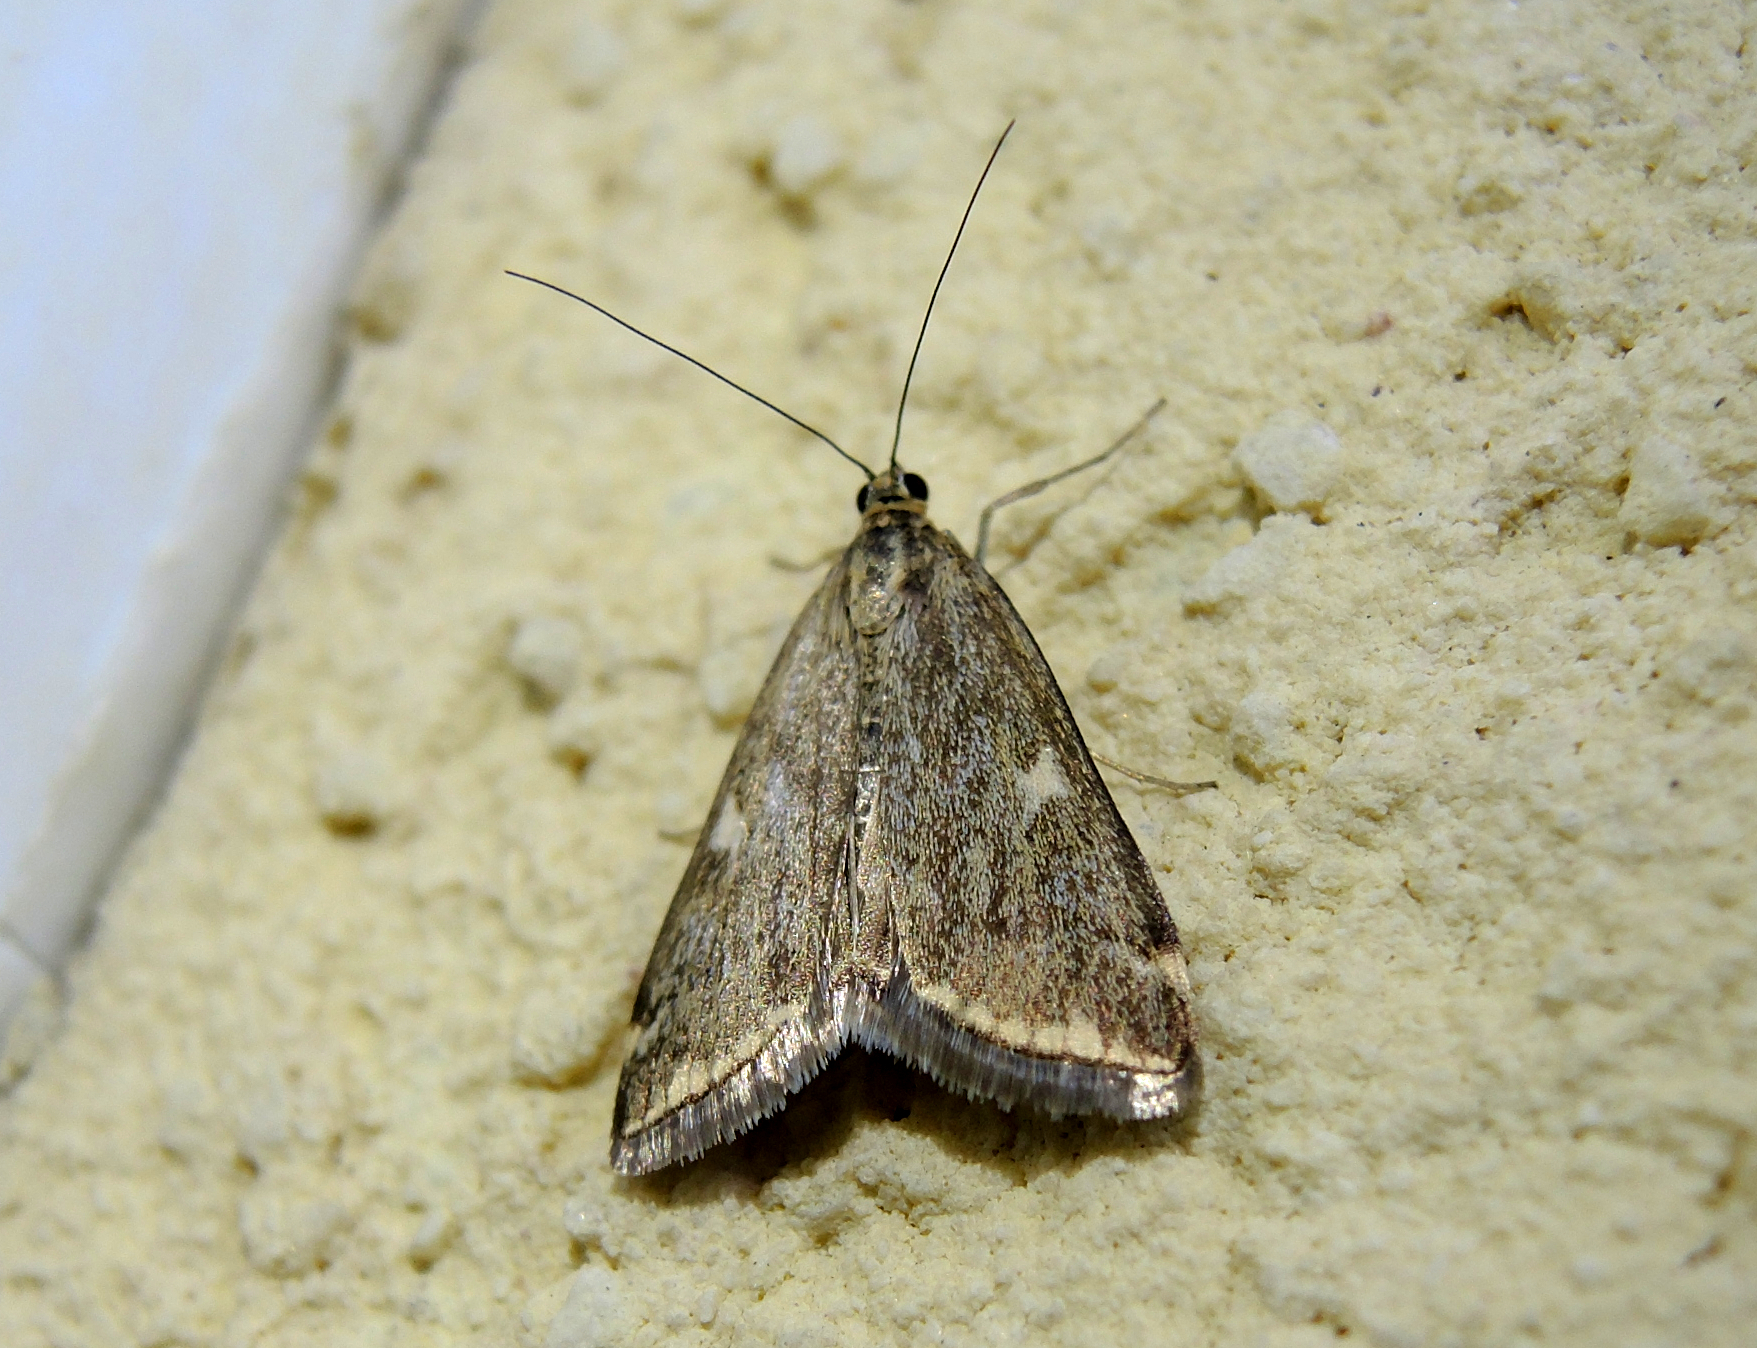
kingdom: Animalia
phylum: Arthropoda
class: Insecta
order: Lepidoptera
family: Crambidae
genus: Loxostege
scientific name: Loxostege sticticalis
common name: Crambid moth
